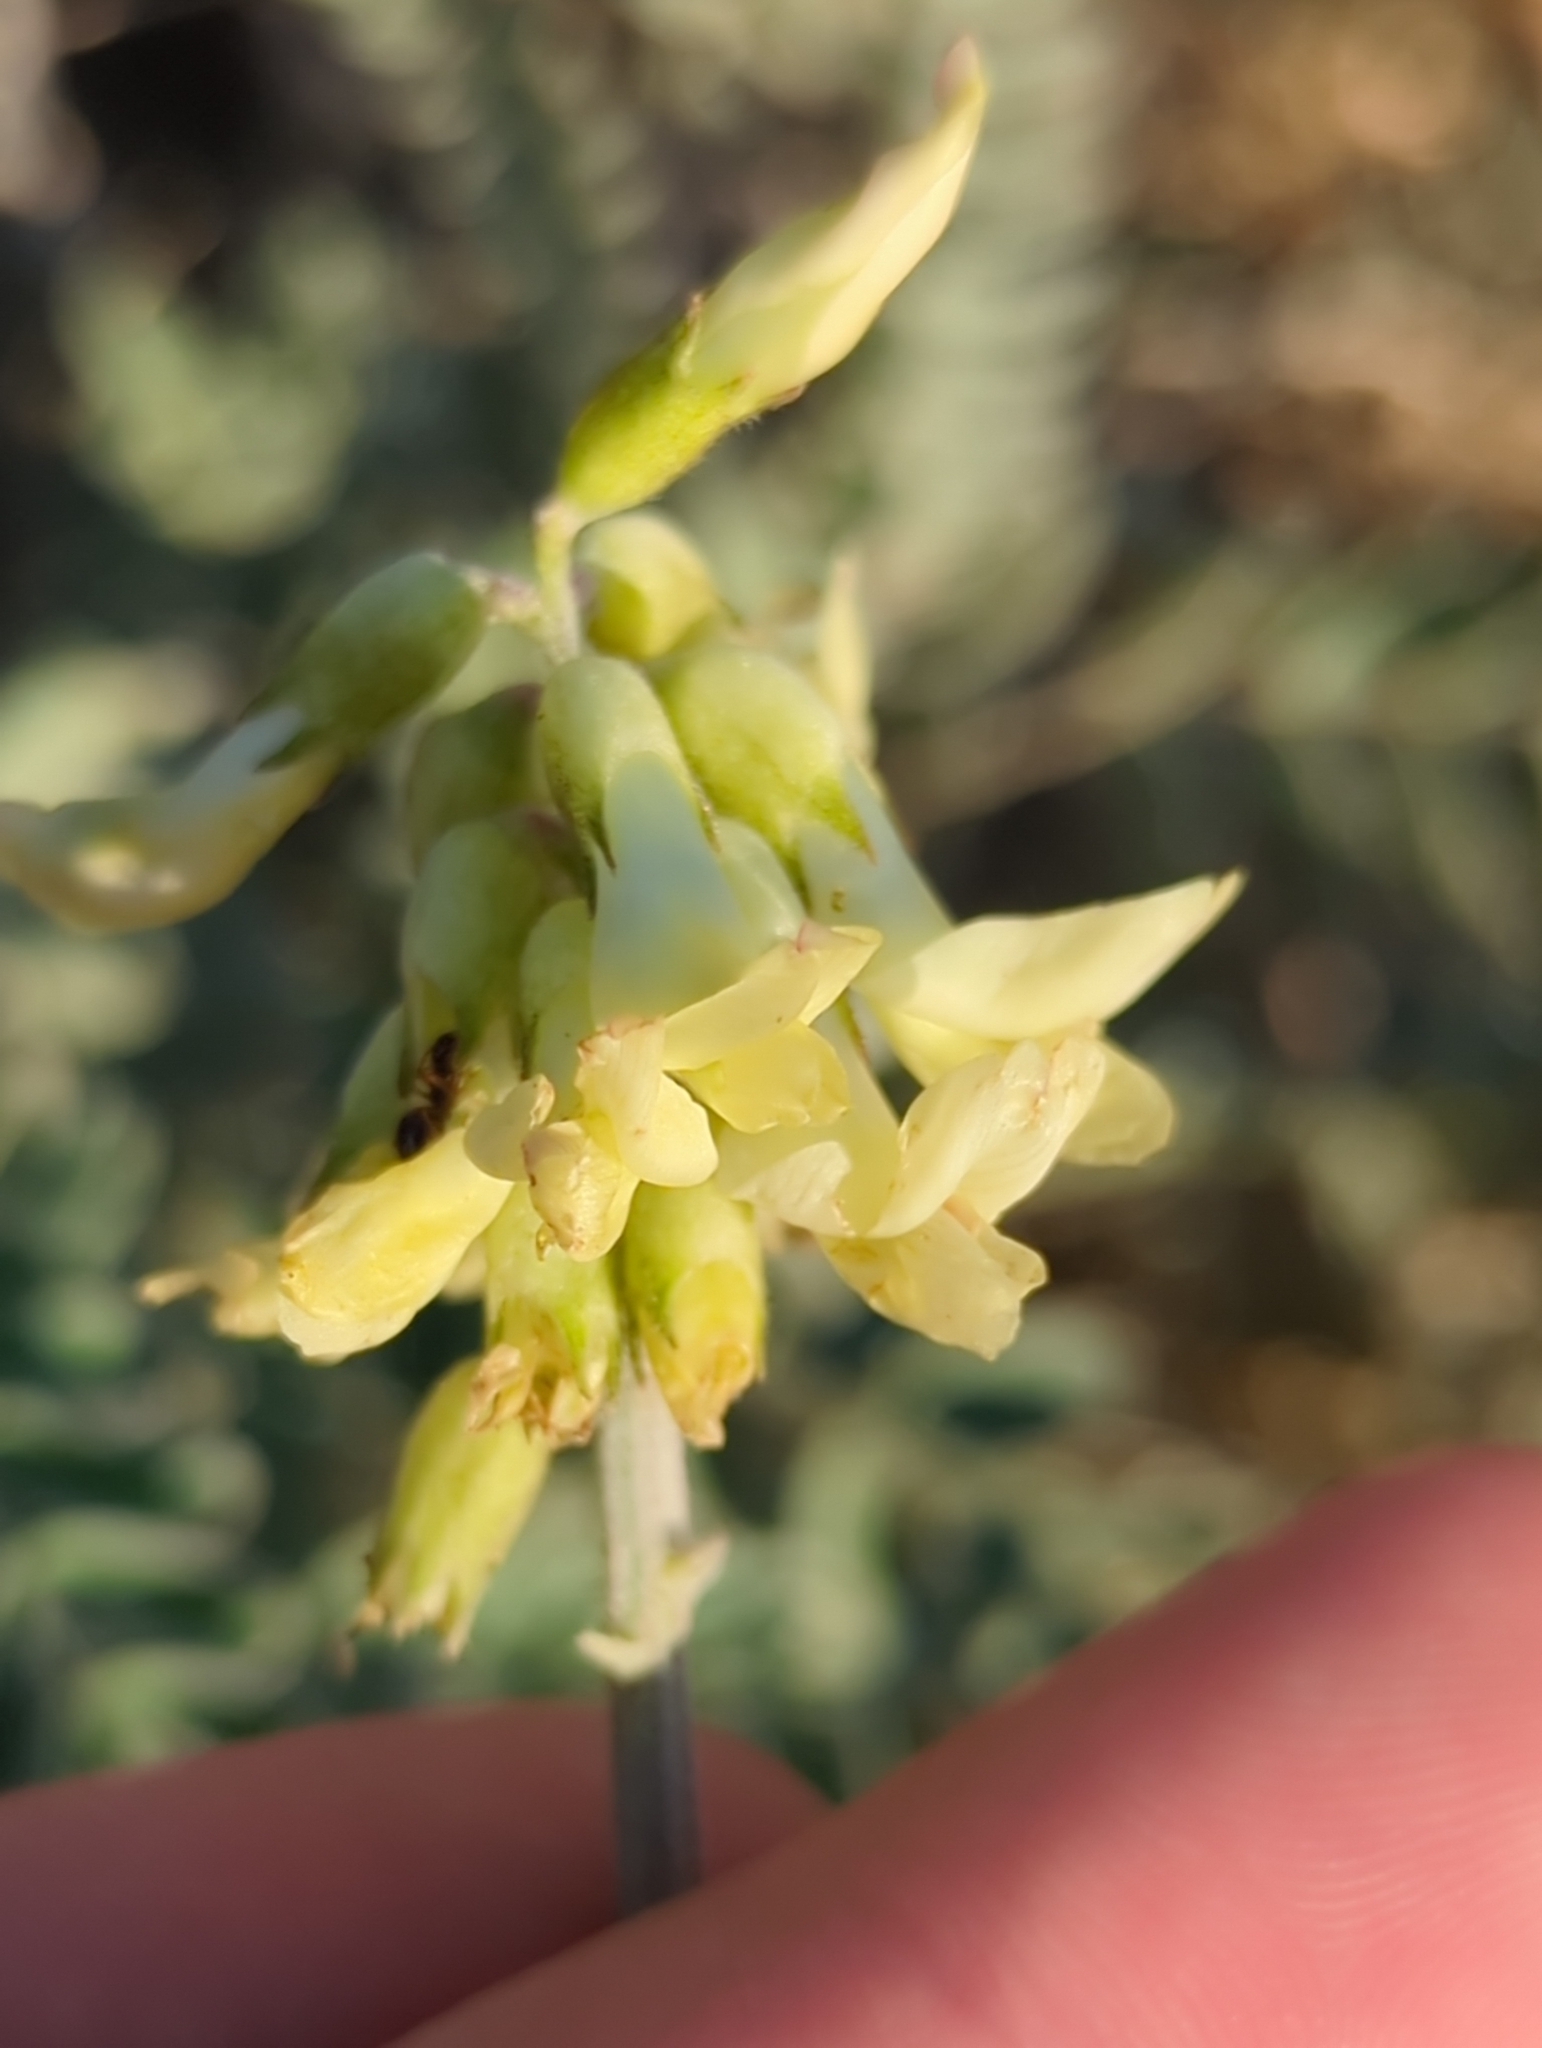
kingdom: Plantae
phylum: Tracheophyta
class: Magnoliopsida
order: Fabales
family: Fabaceae
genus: Astragalus
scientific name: Astragalus trichopodus
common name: Santa barbara milk-vetch
